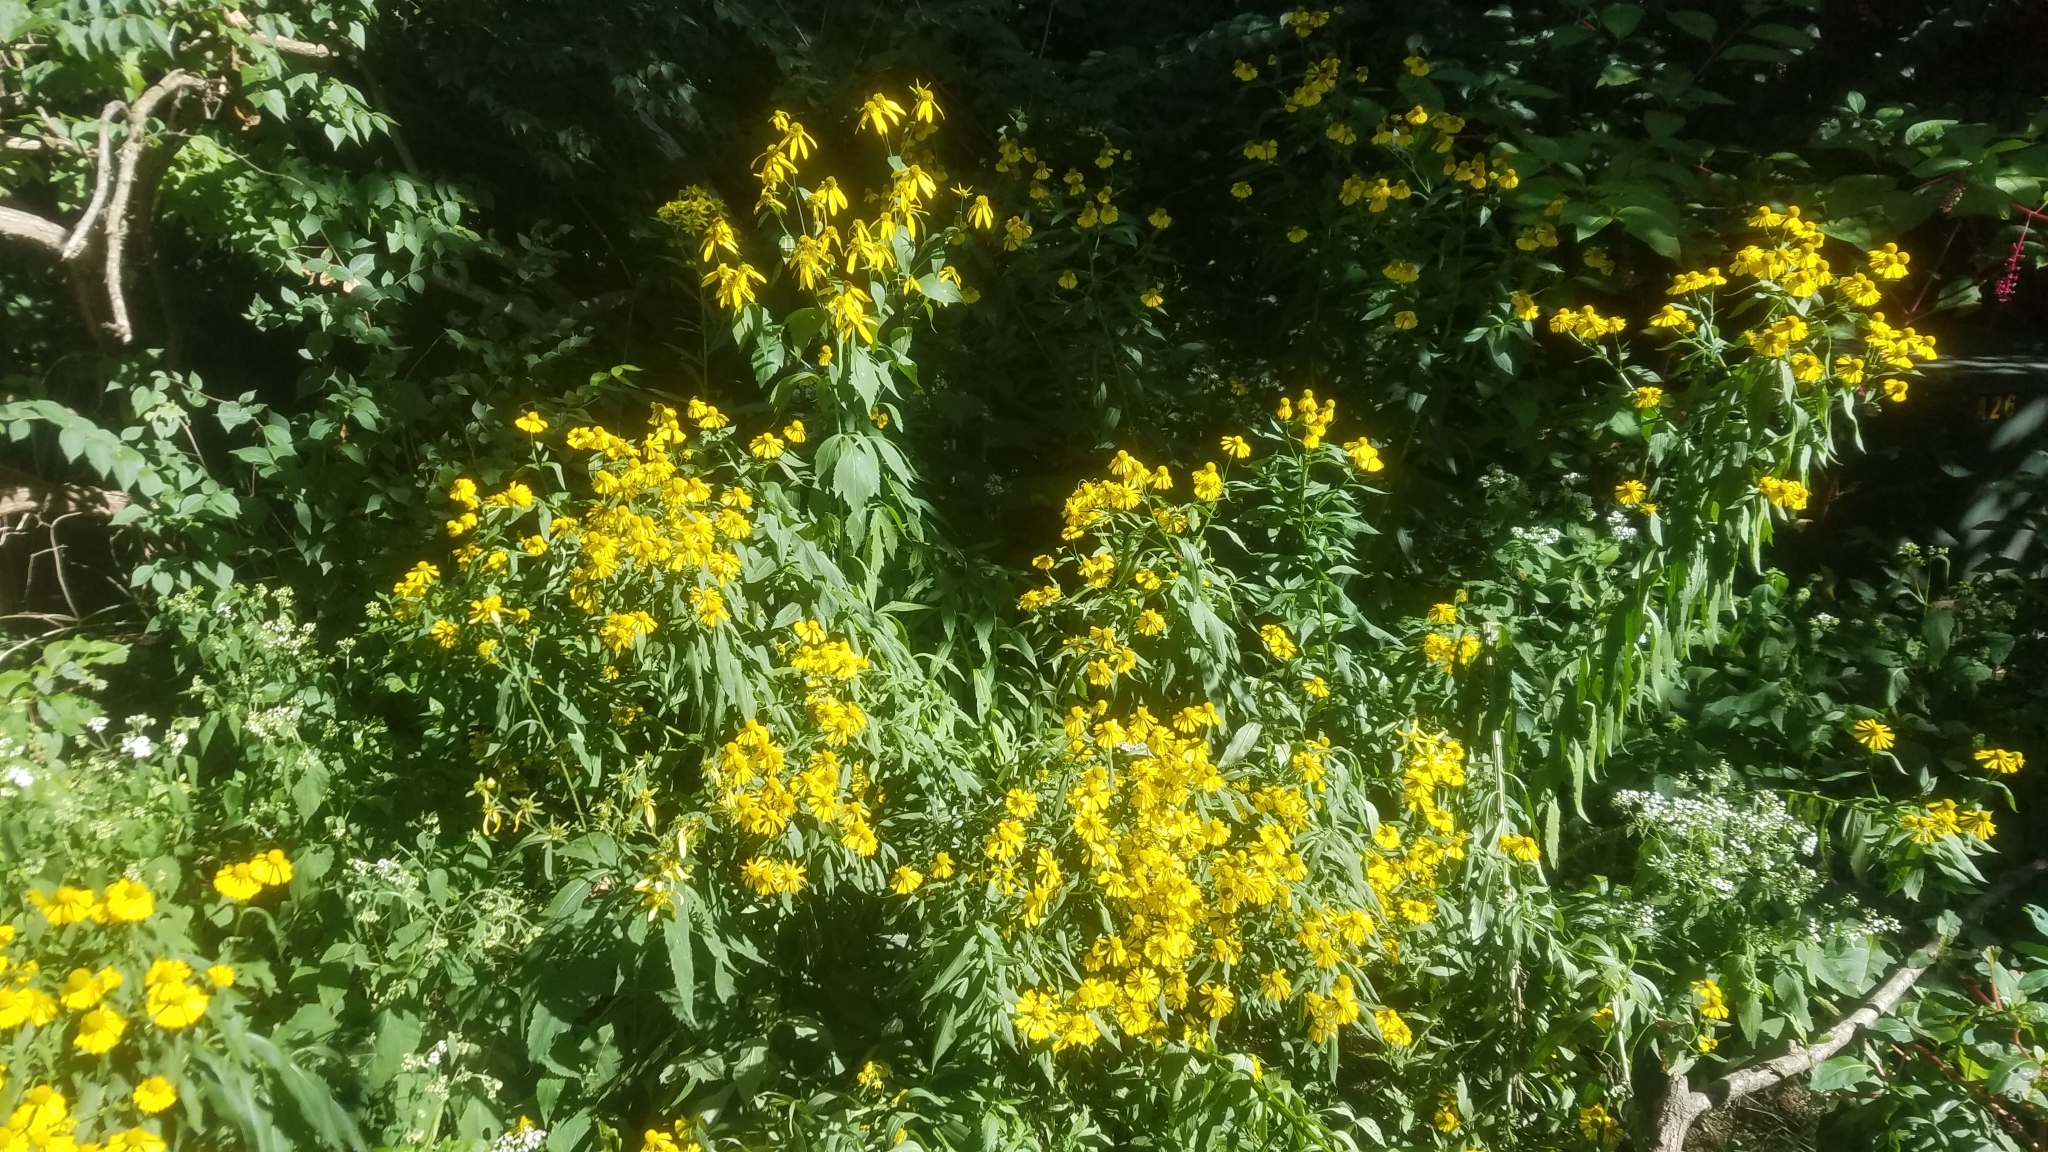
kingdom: Plantae
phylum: Tracheophyta
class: Magnoliopsida
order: Asterales
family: Asteraceae
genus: Helenium
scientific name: Helenium autumnale
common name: Sneezeweed
